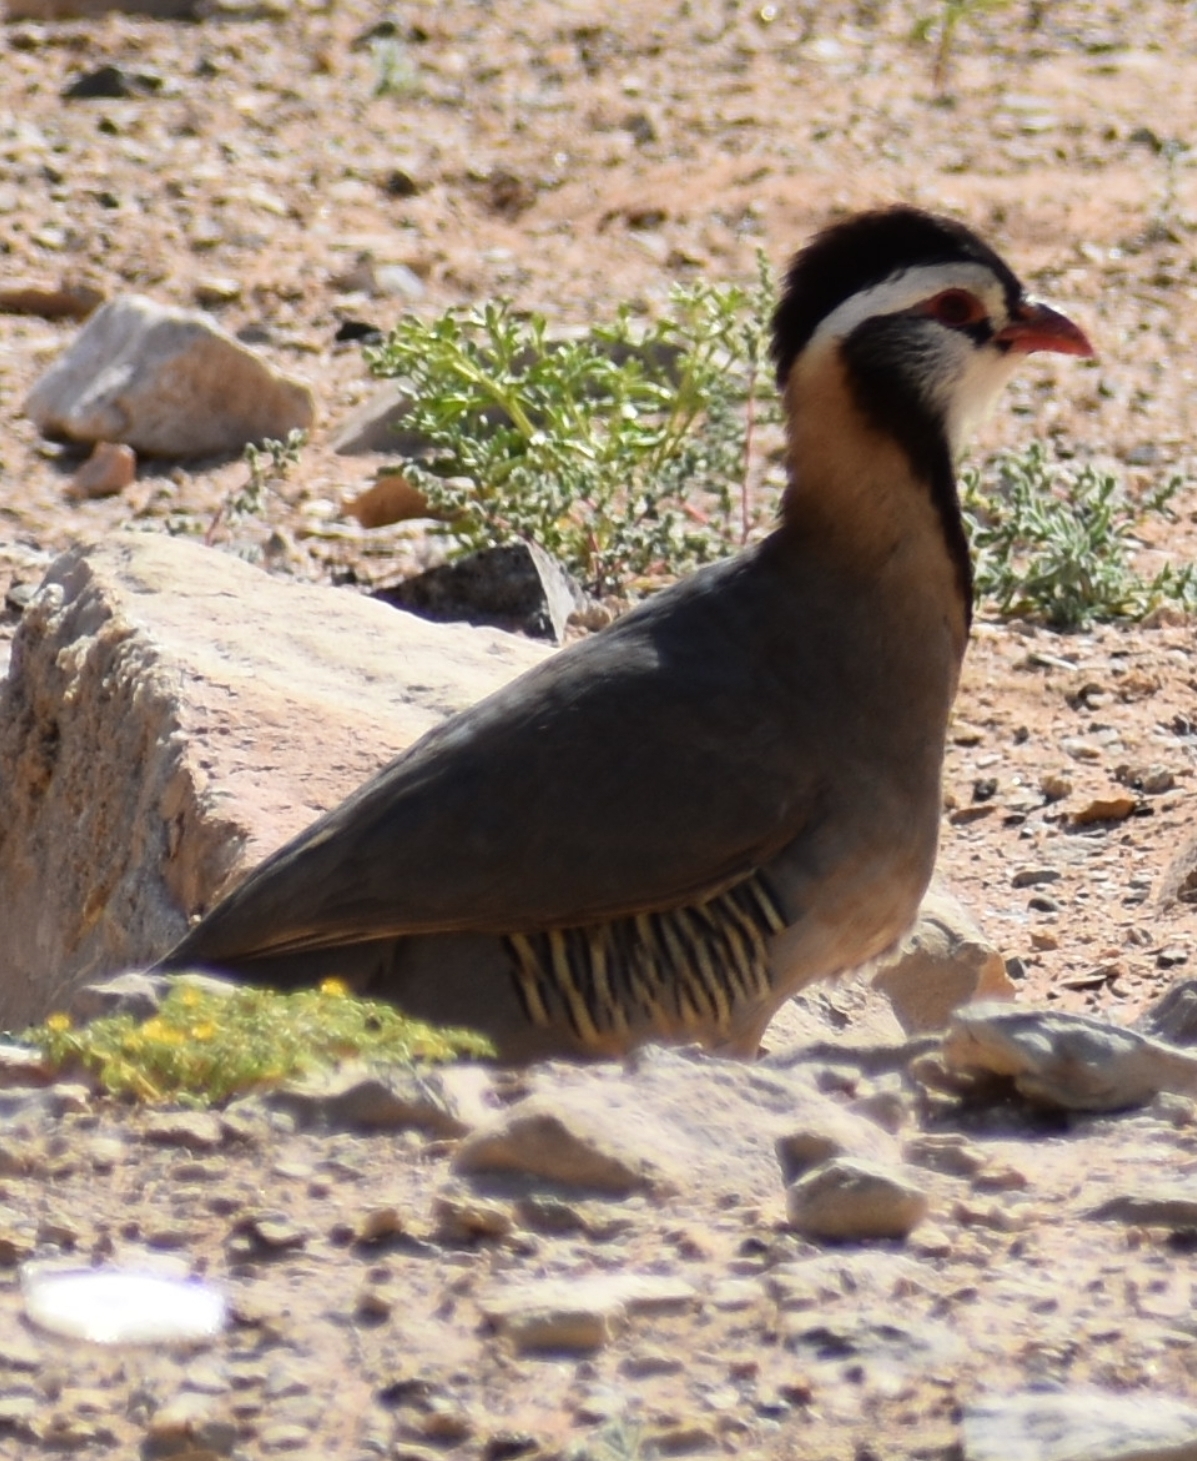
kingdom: Animalia
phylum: Chordata
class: Aves
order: Galliformes
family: Phasianidae
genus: Alectoris
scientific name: Alectoris melanocephala
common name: Arabian partridge
